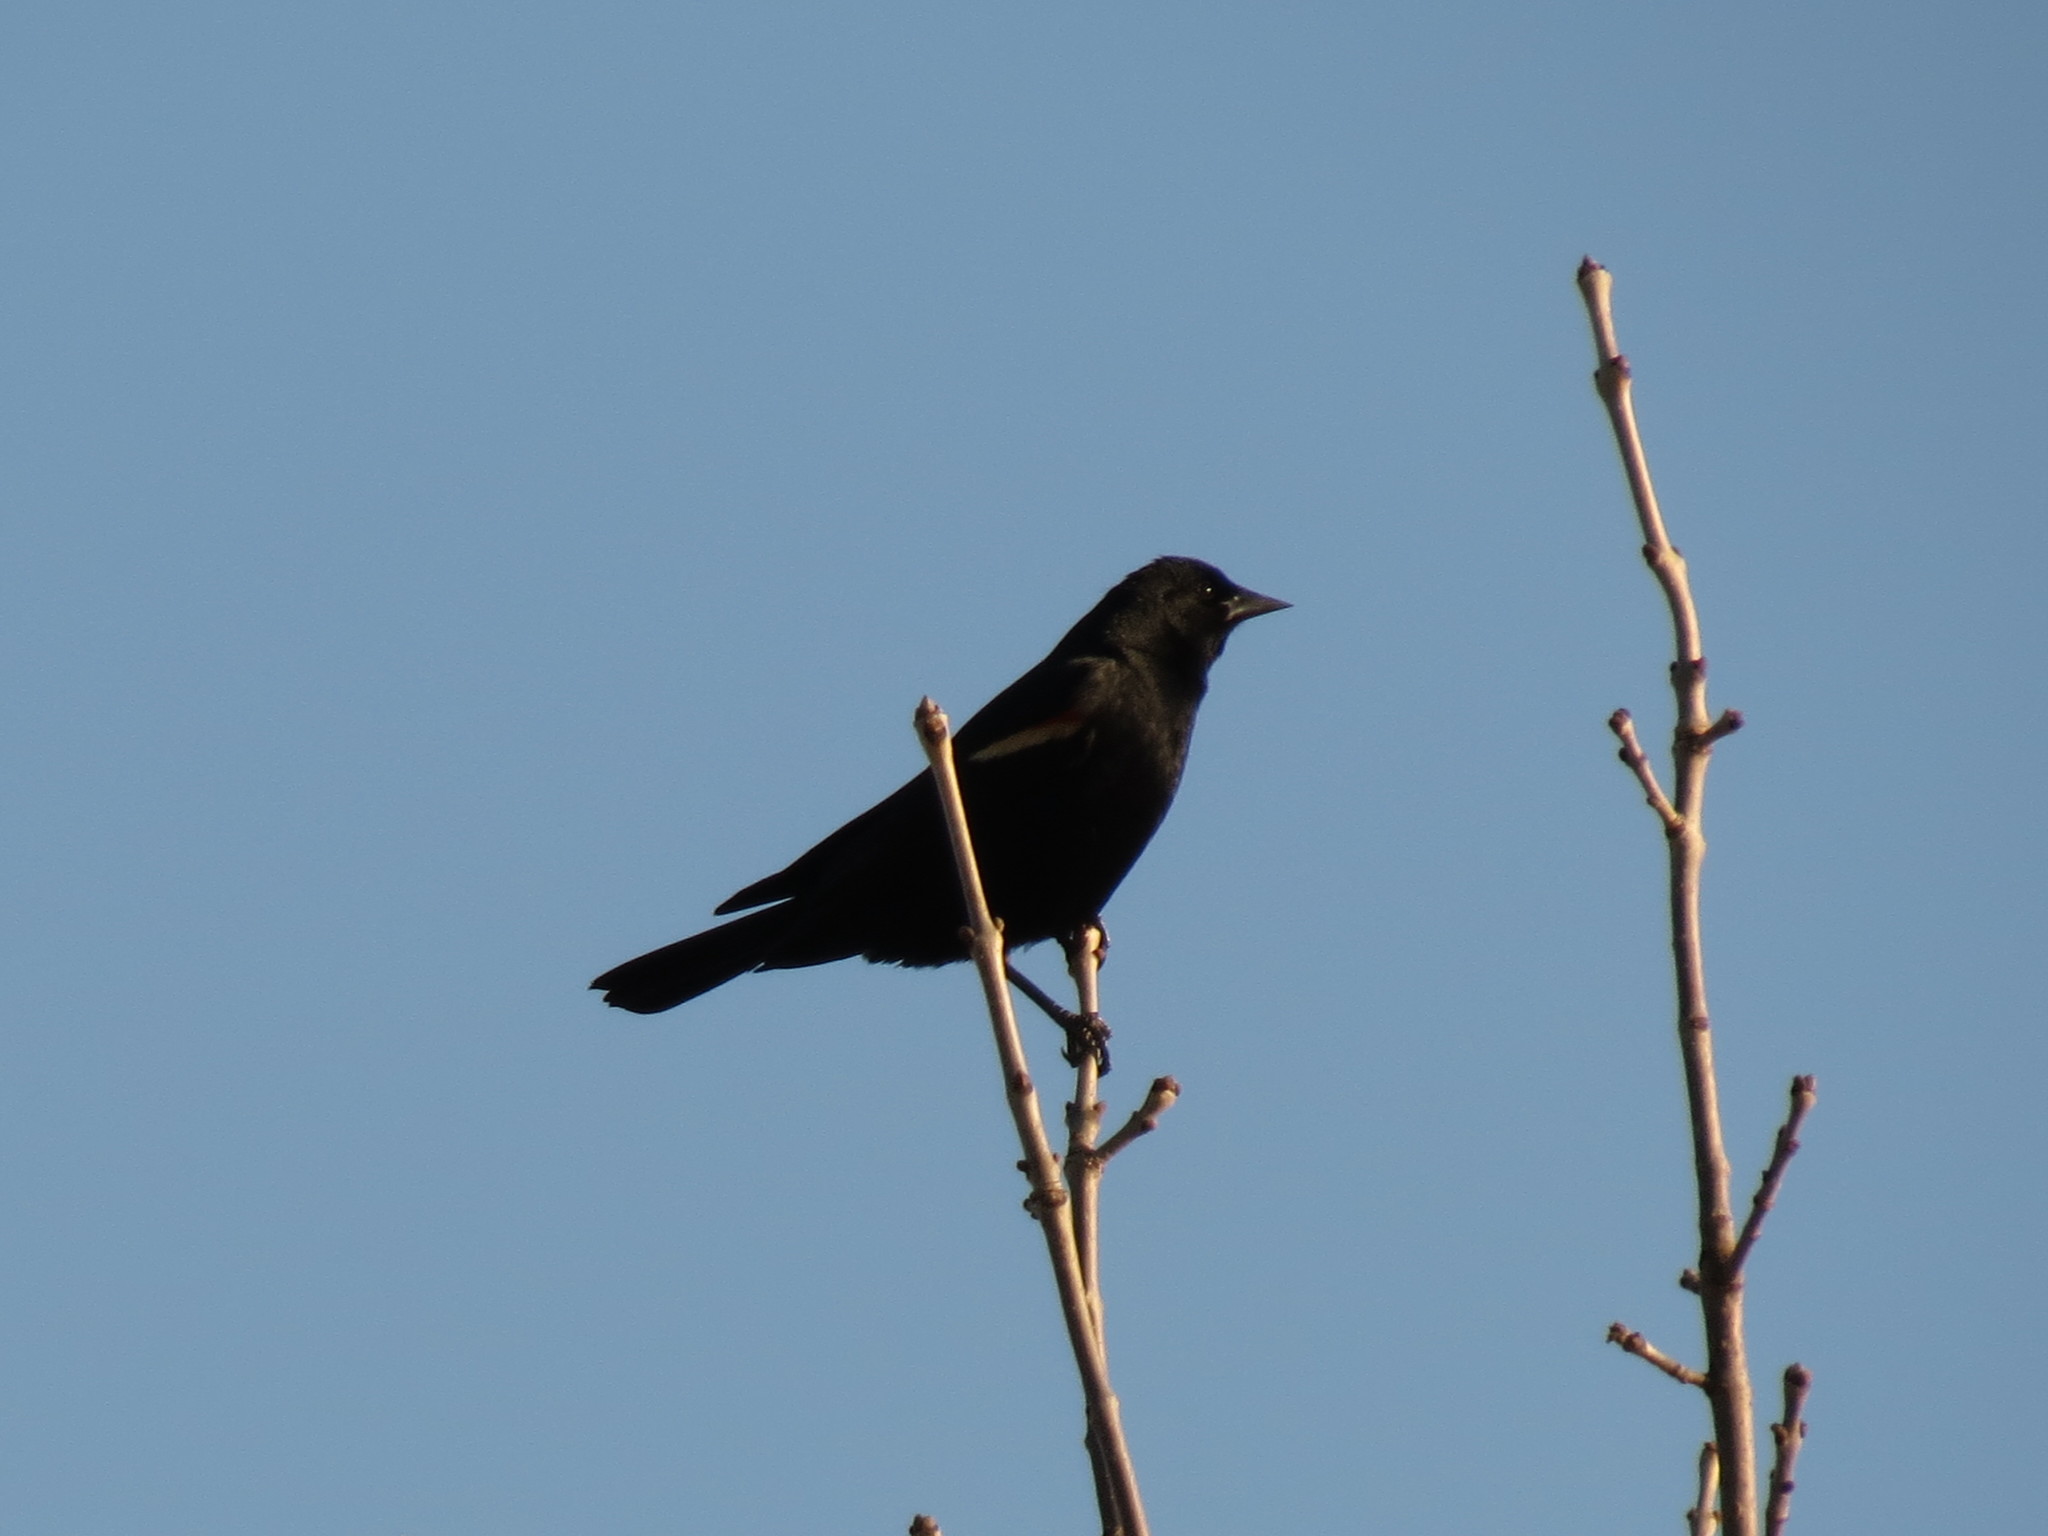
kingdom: Animalia
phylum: Chordata
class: Aves
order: Passeriformes
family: Icteridae
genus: Agelaius
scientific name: Agelaius phoeniceus
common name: Red-winged blackbird
